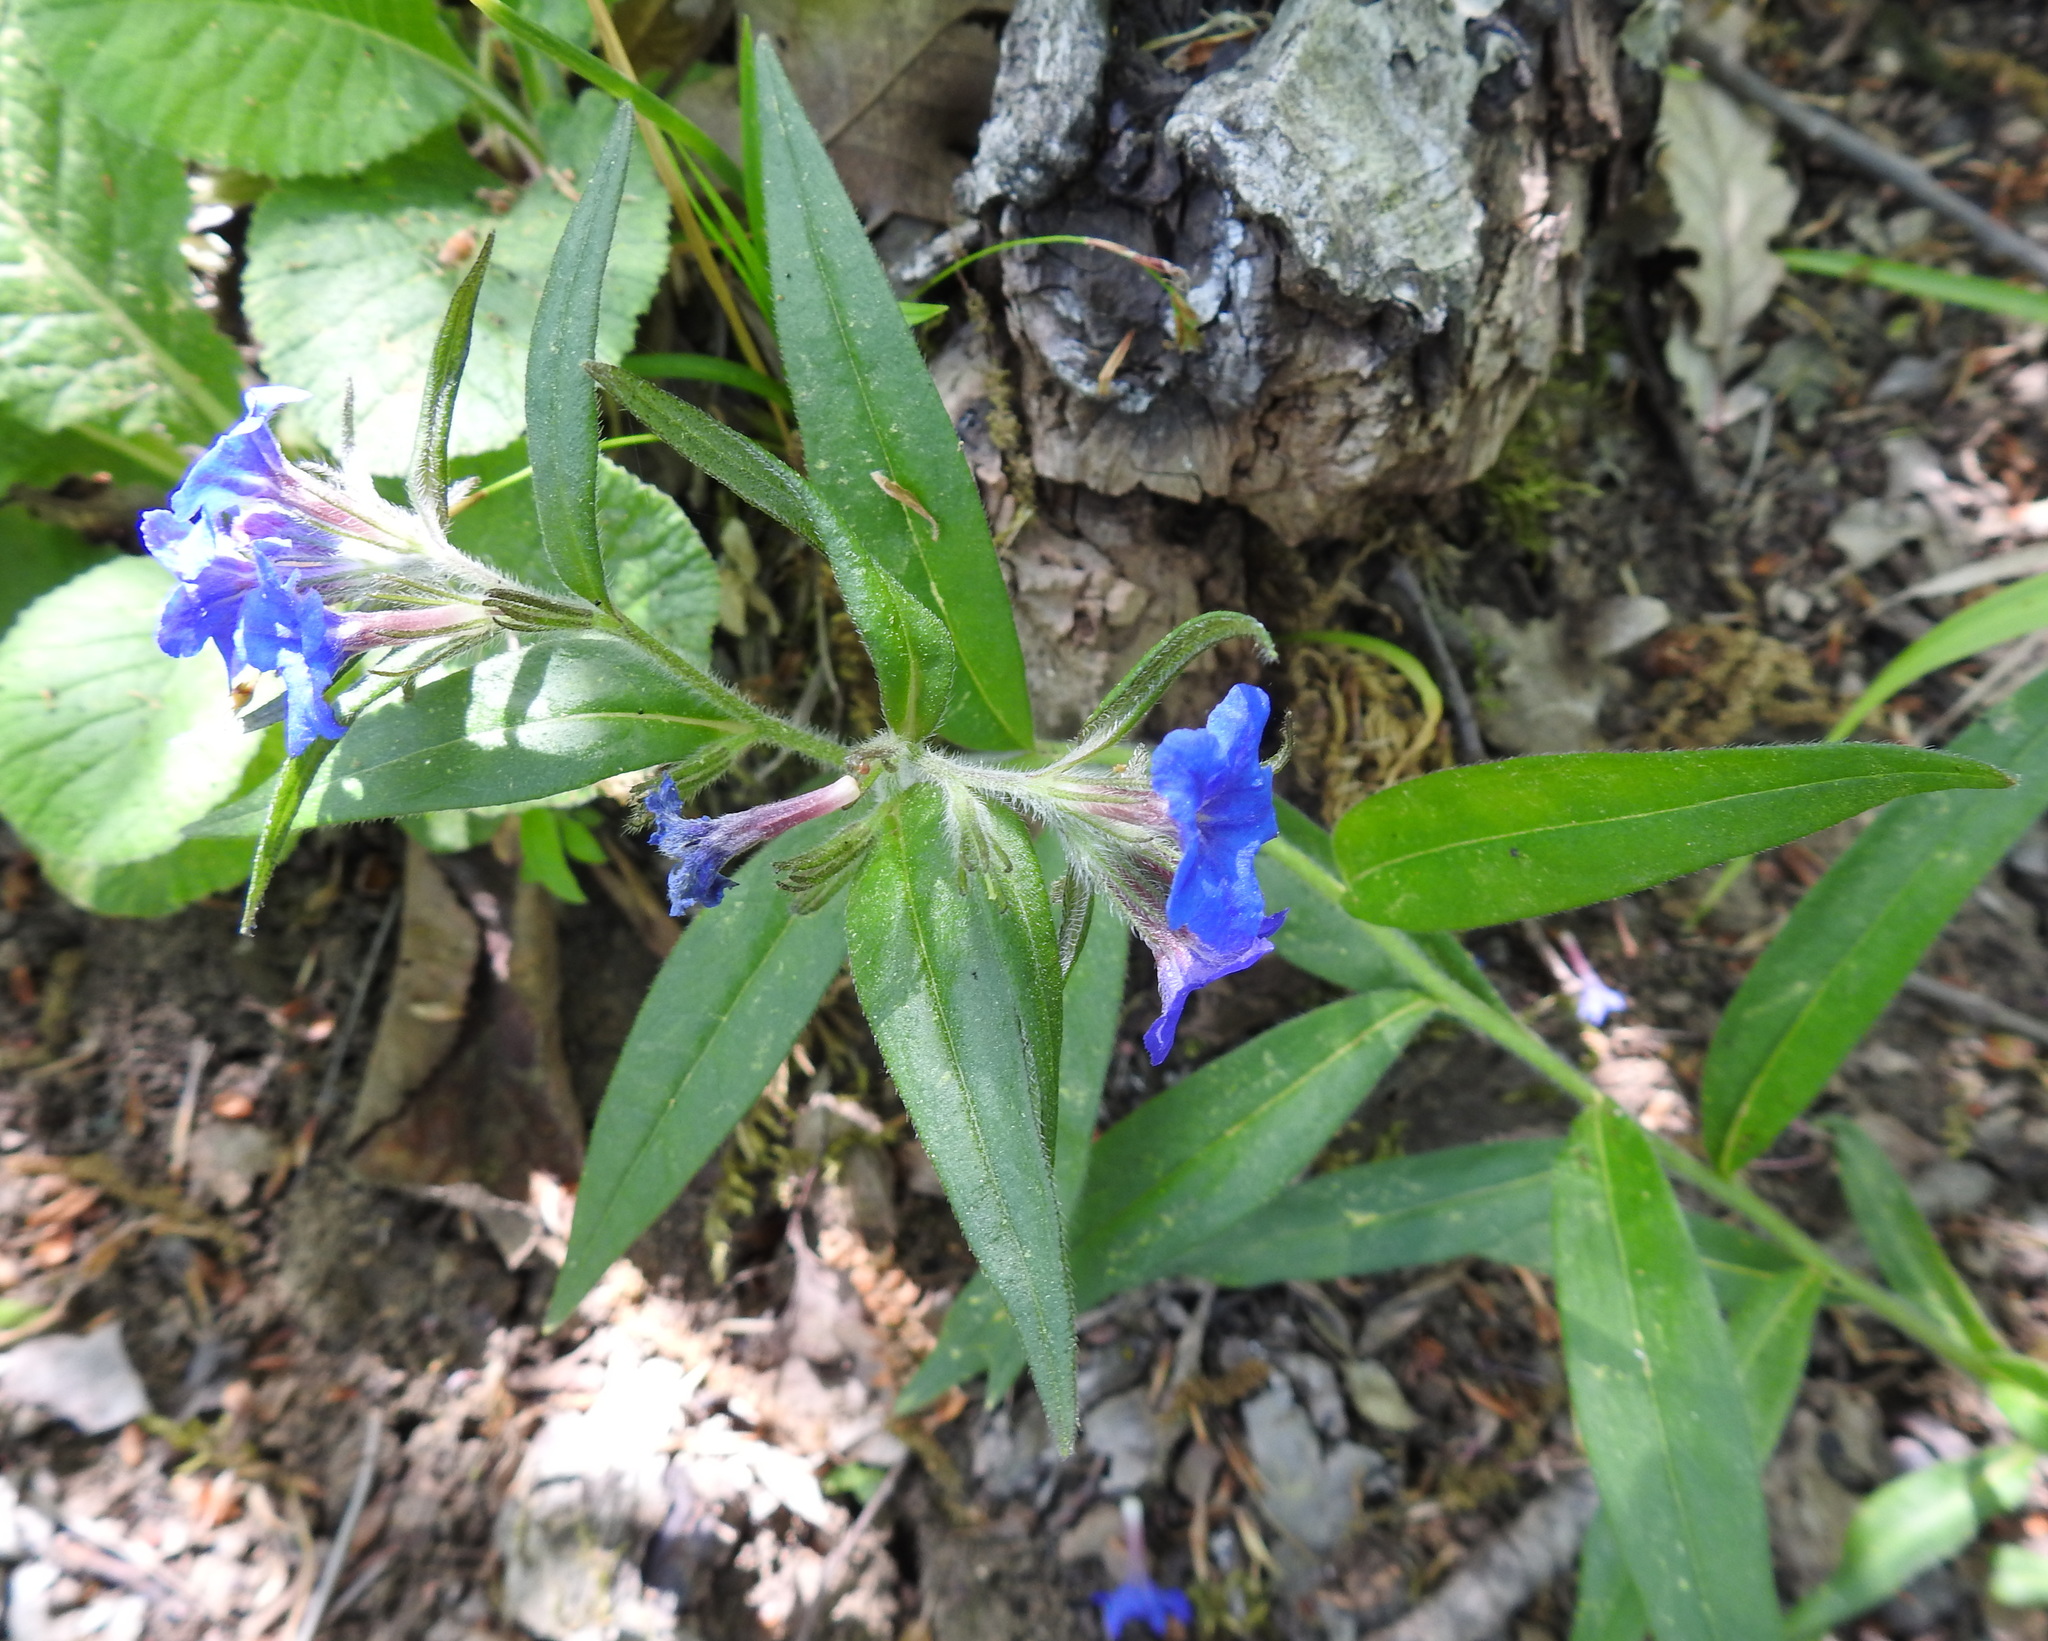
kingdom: Plantae
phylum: Tracheophyta
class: Magnoliopsida
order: Boraginales
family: Boraginaceae
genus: Aegonychon
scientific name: Aegonychon purpurocaeruleum
